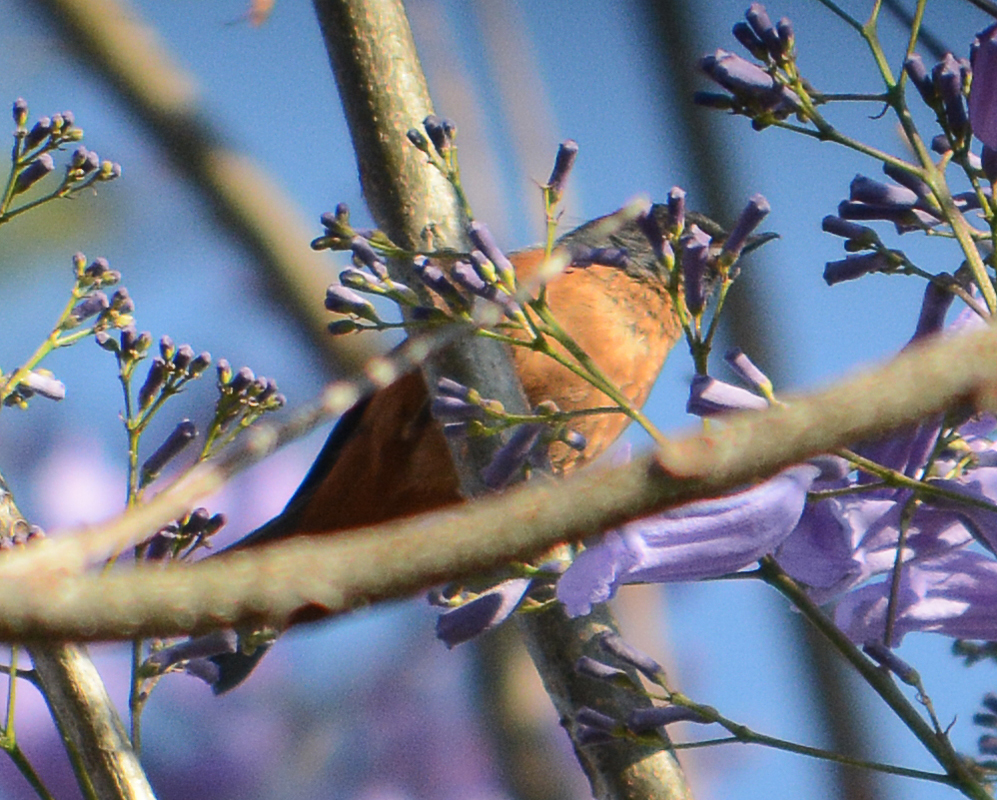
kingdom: Animalia
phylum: Chordata
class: Aves
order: Passeriformes
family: Thraupidae
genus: Diglossa
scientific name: Diglossa baritula
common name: Cinnamon-bellied flowerpiercer
